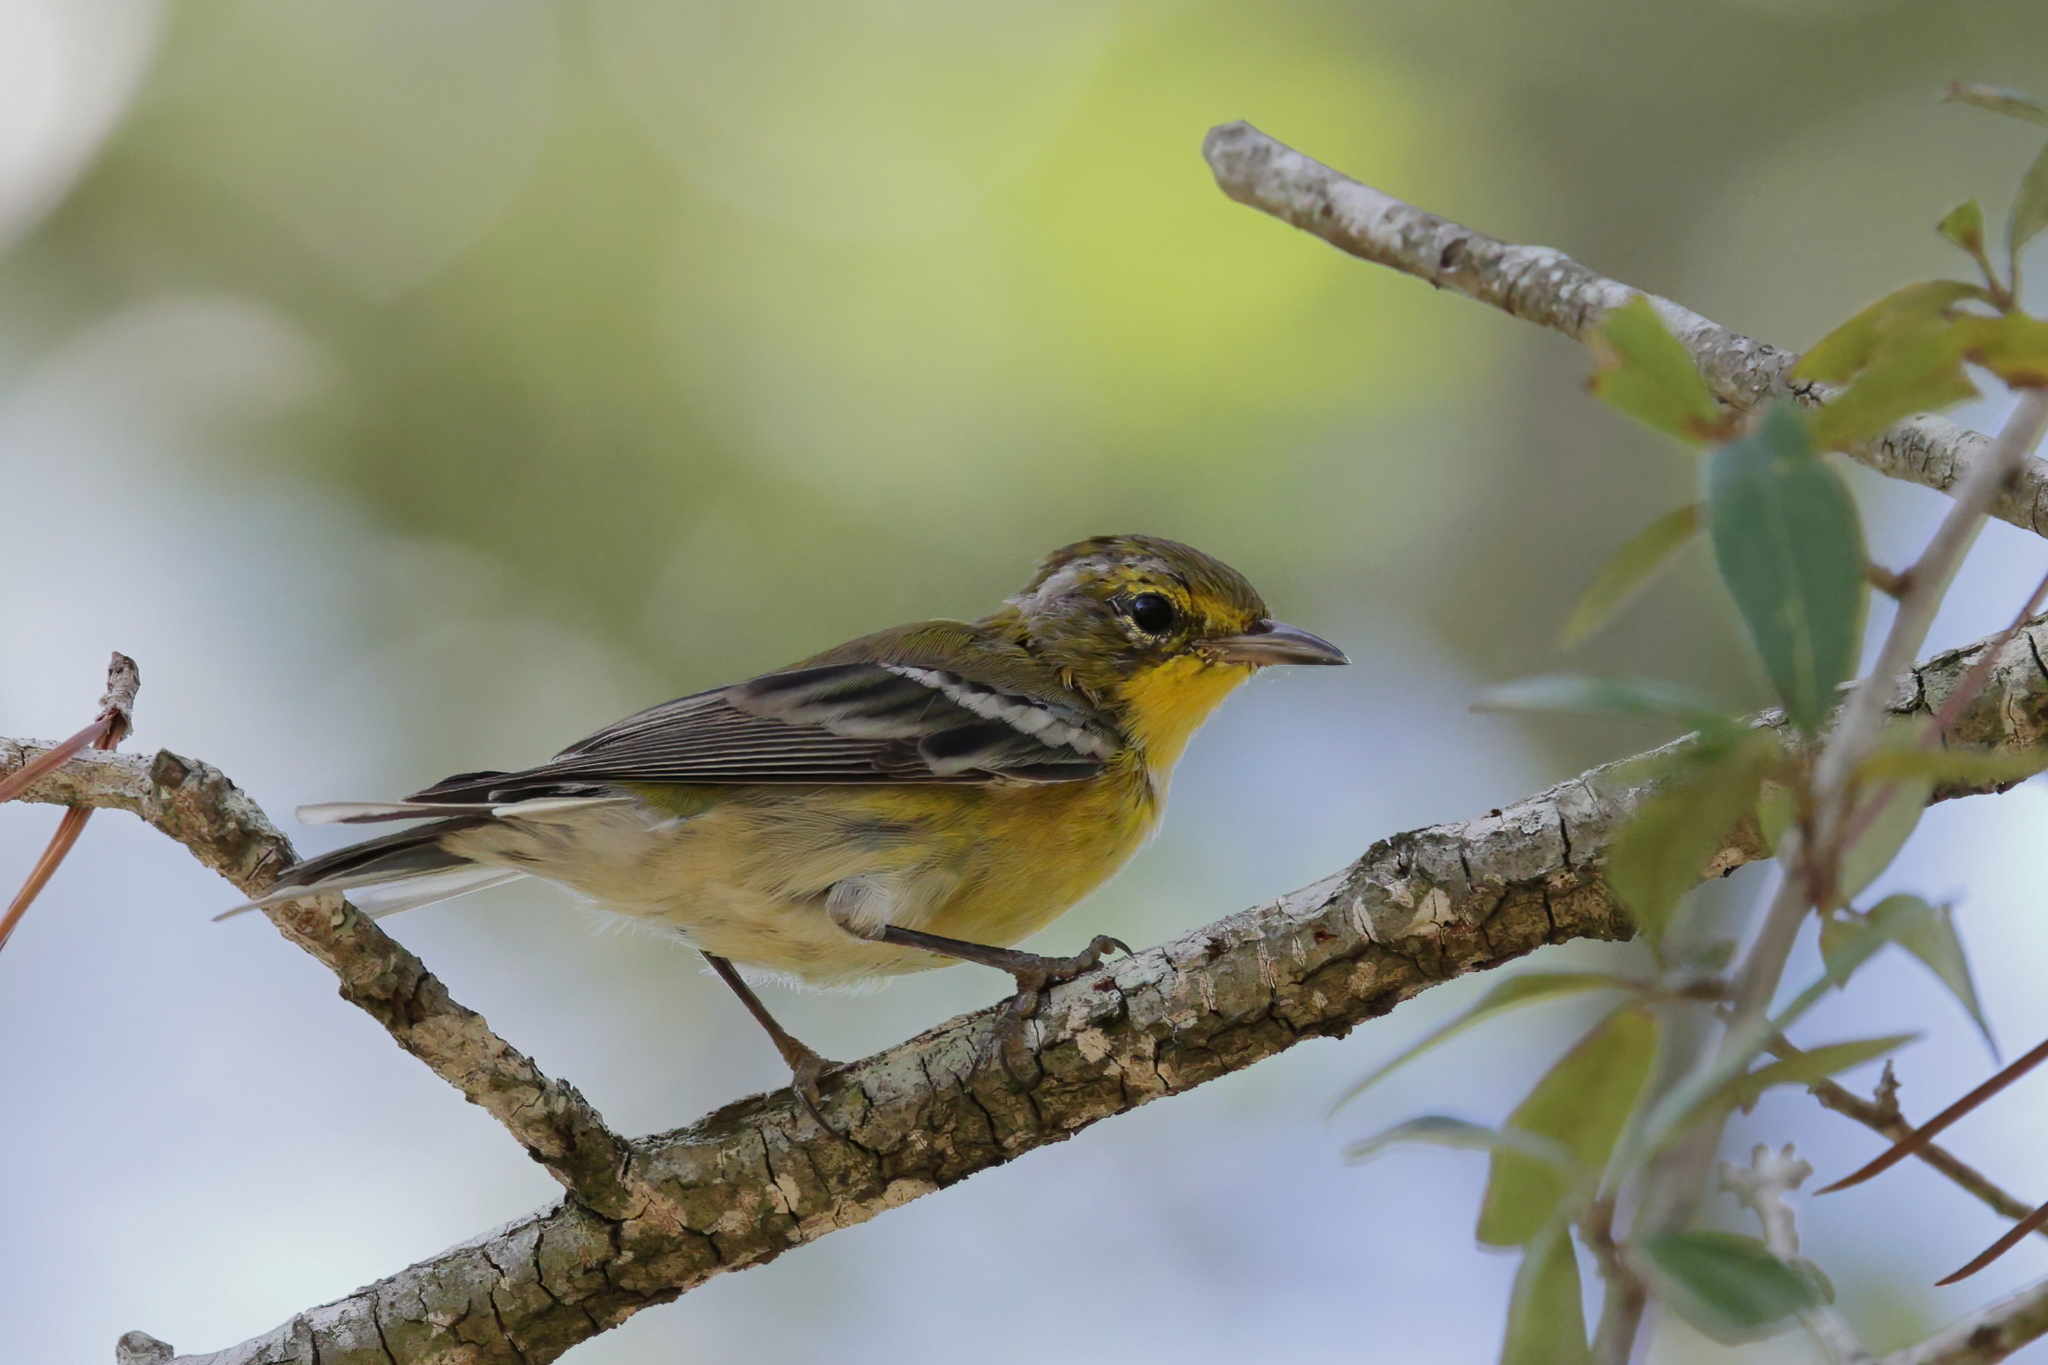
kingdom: Animalia
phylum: Chordata
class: Aves
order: Passeriformes
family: Parulidae
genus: Setophaga
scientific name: Setophaga pinus
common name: Pine warbler
